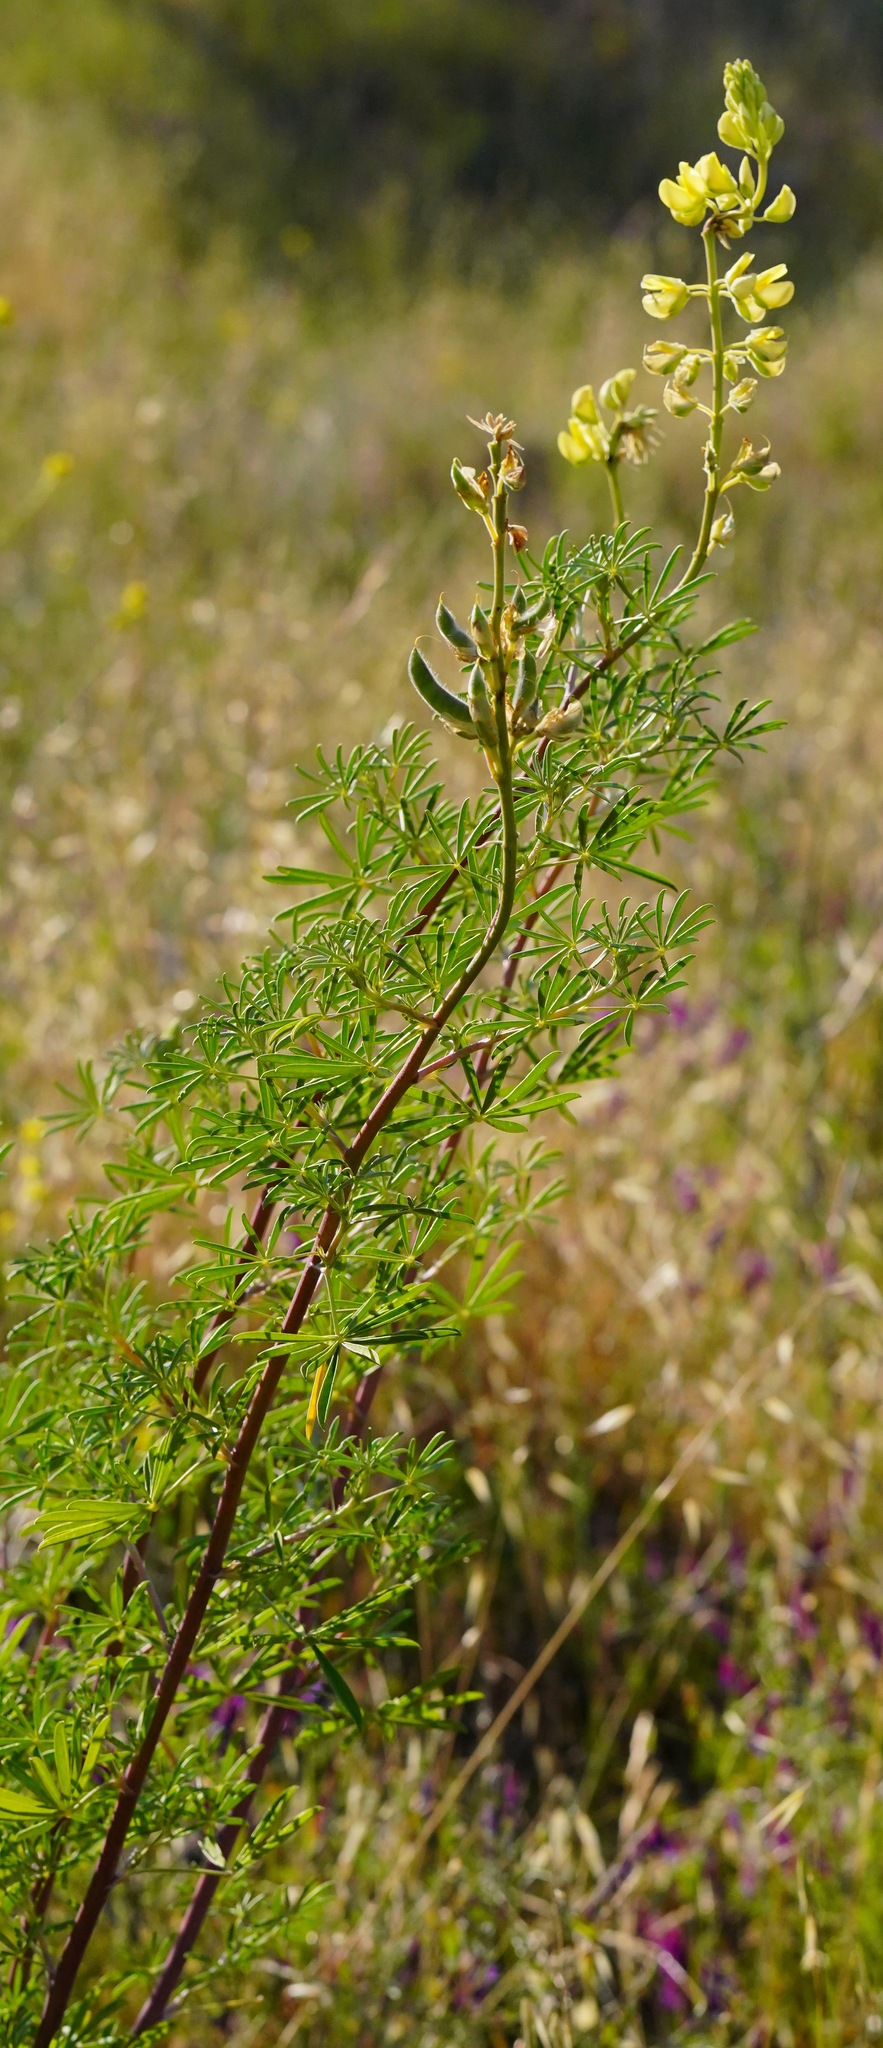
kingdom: Plantae
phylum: Tracheophyta
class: Magnoliopsida
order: Fabales
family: Fabaceae
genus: Lupinus
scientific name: Lupinus arboreus
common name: Yellow bush lupine
